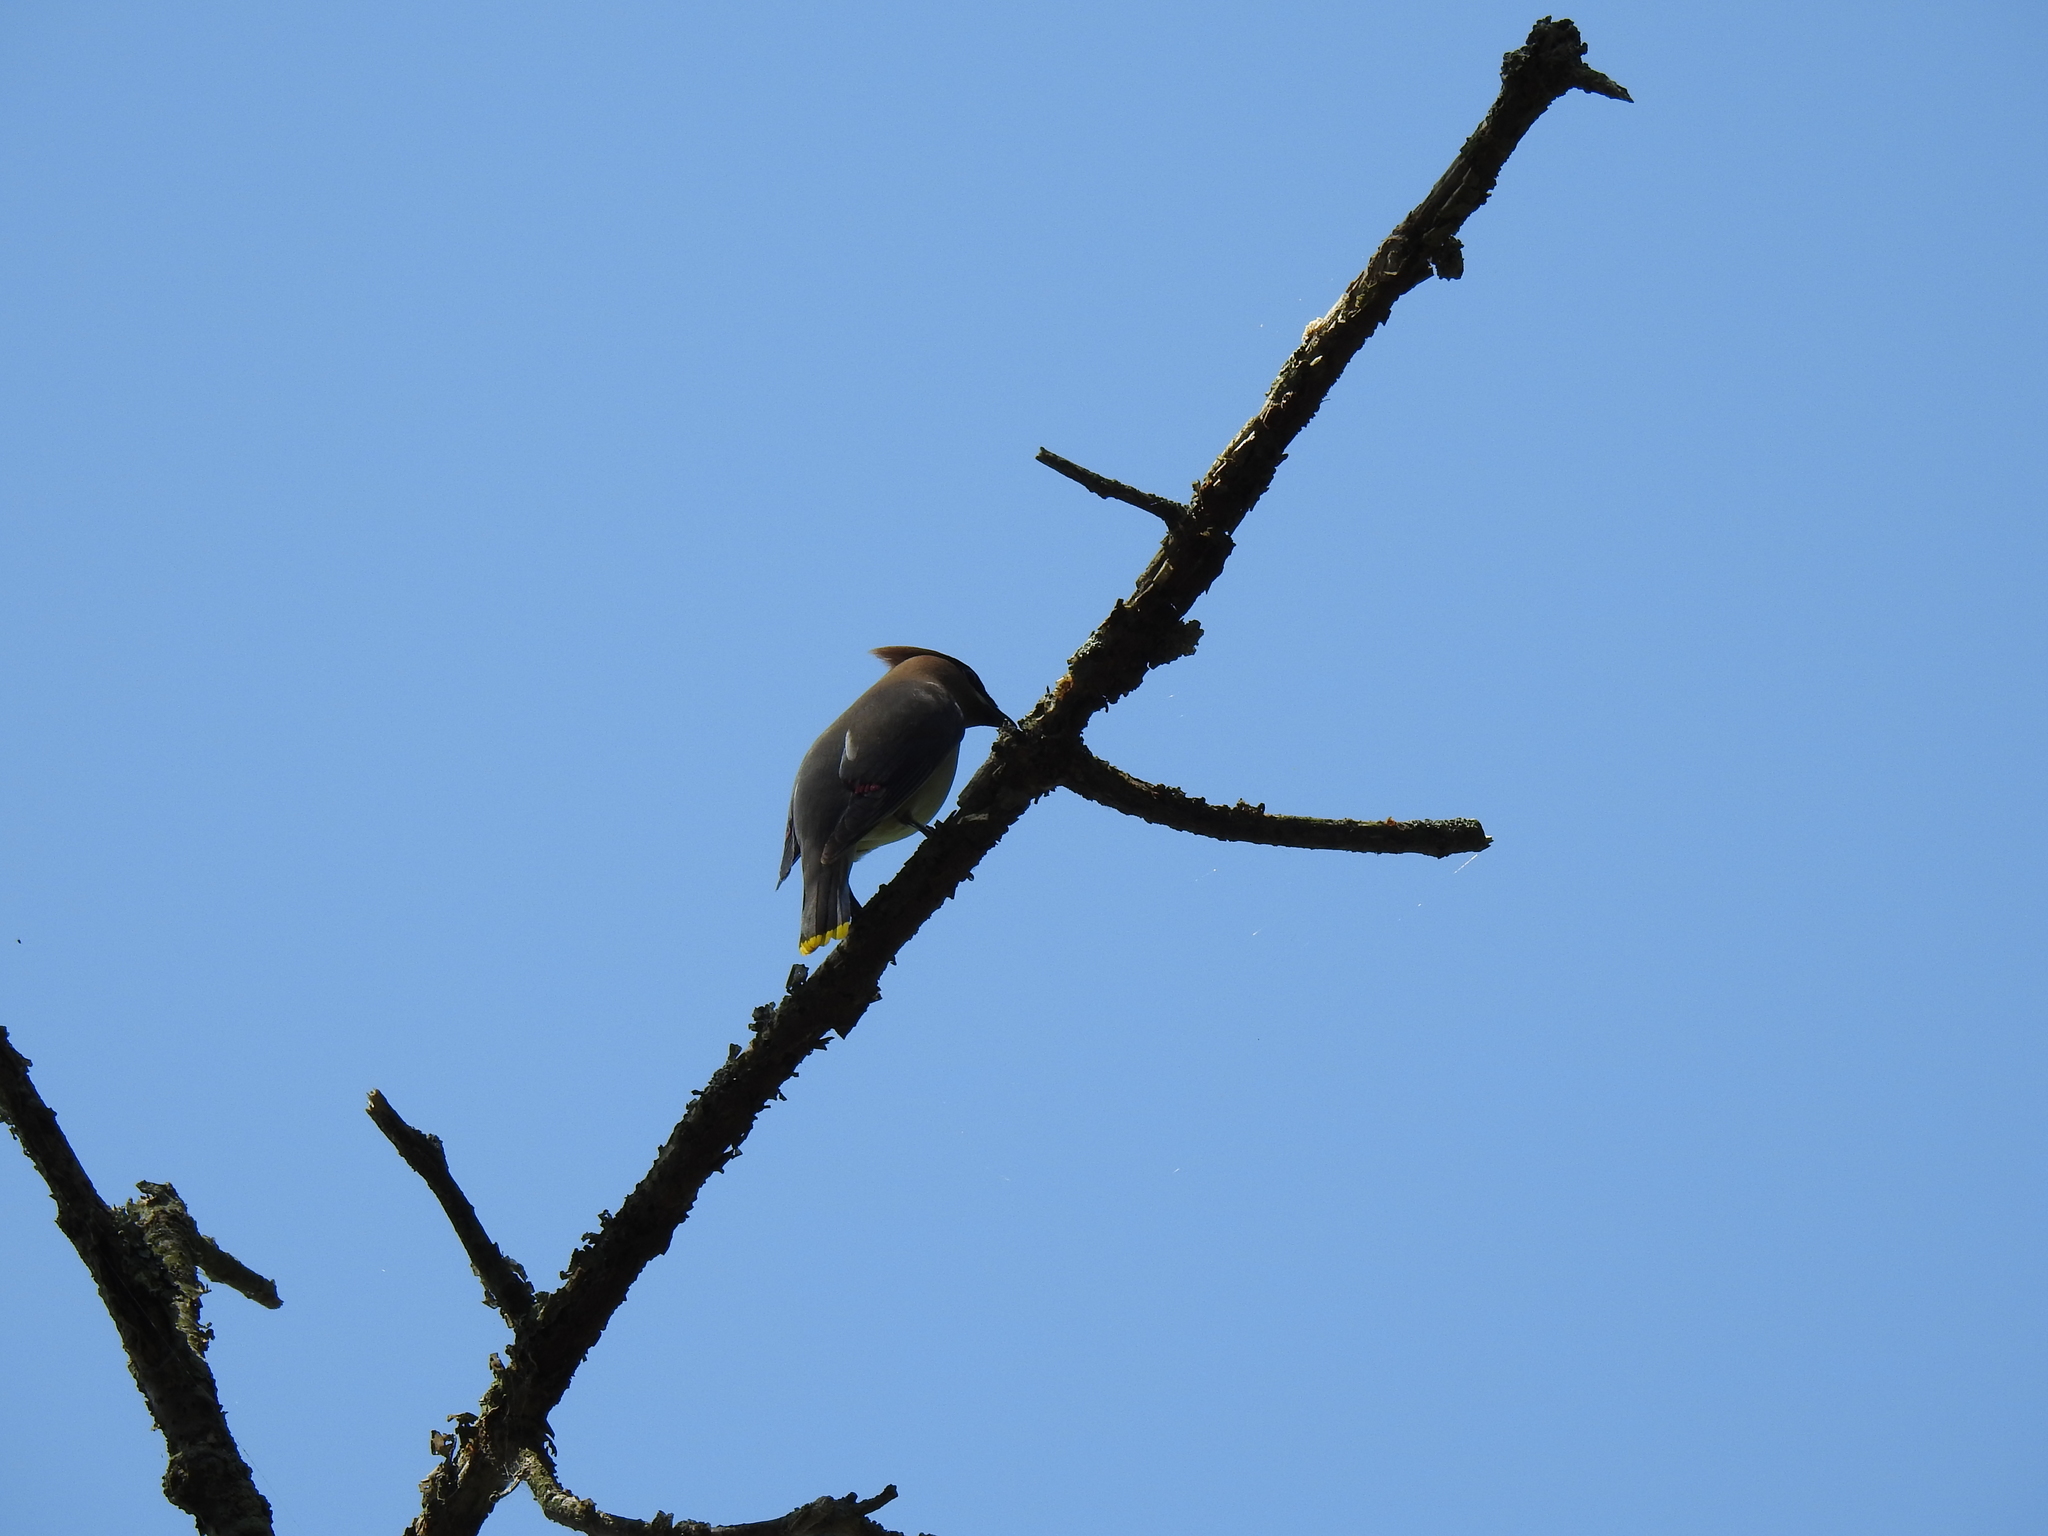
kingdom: Animalia
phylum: Chordata
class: Aves
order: Passeriformes
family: Bombycillidae
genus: Bombycilla
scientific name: Bombycilla cedrorum
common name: Cedar waxwing
